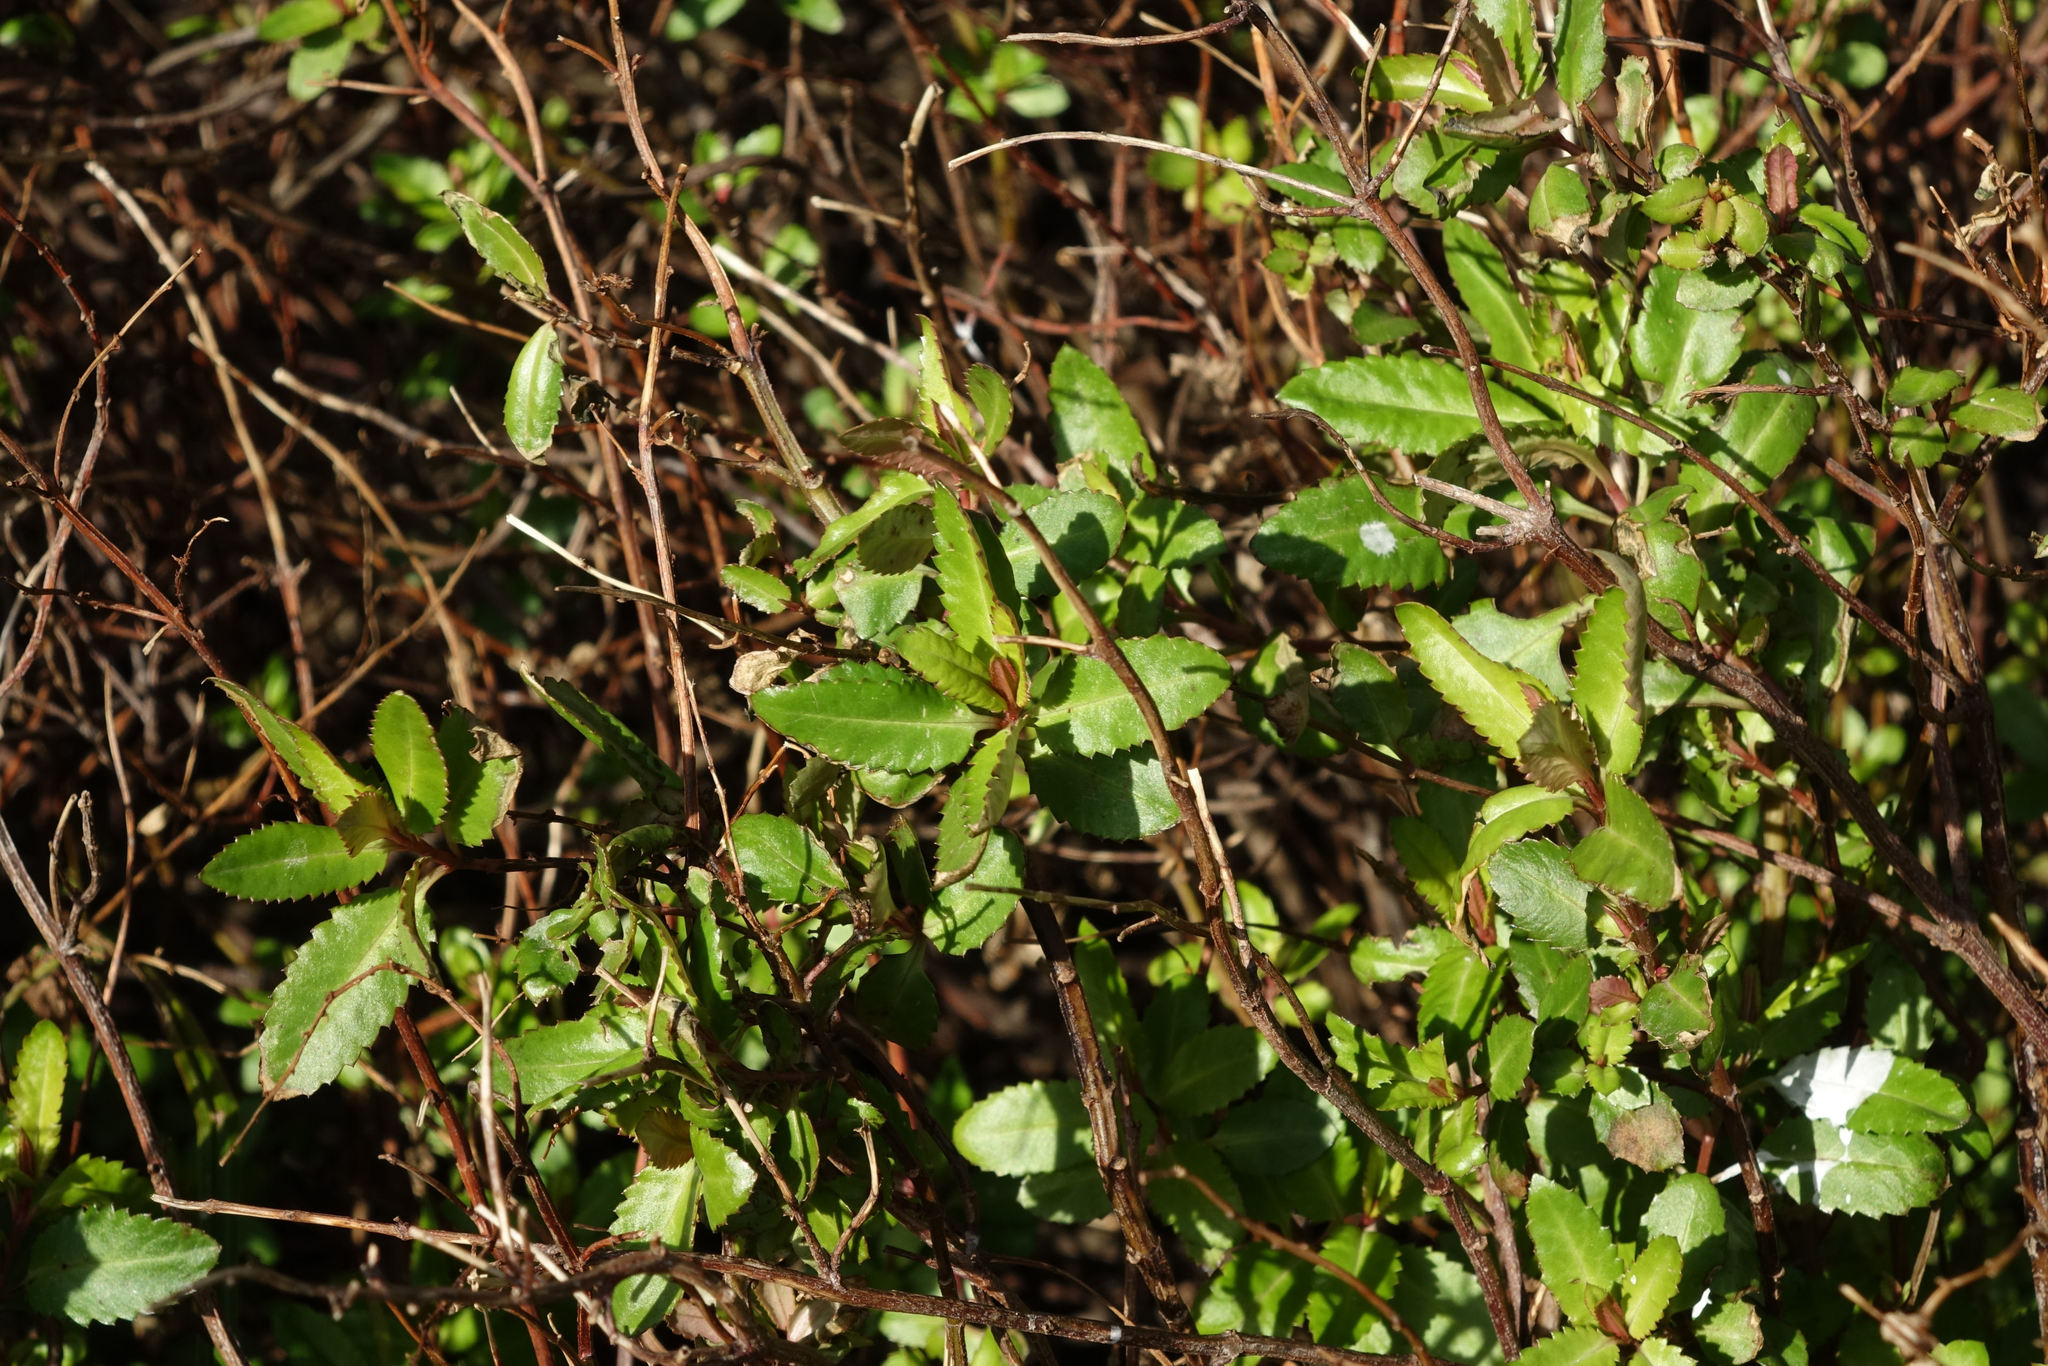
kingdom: Plantae
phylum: Tracheophyta
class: Magnoliopsida
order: Saxifragales
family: Haloragaceae
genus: Haloragis
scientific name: Haloragis erecta
